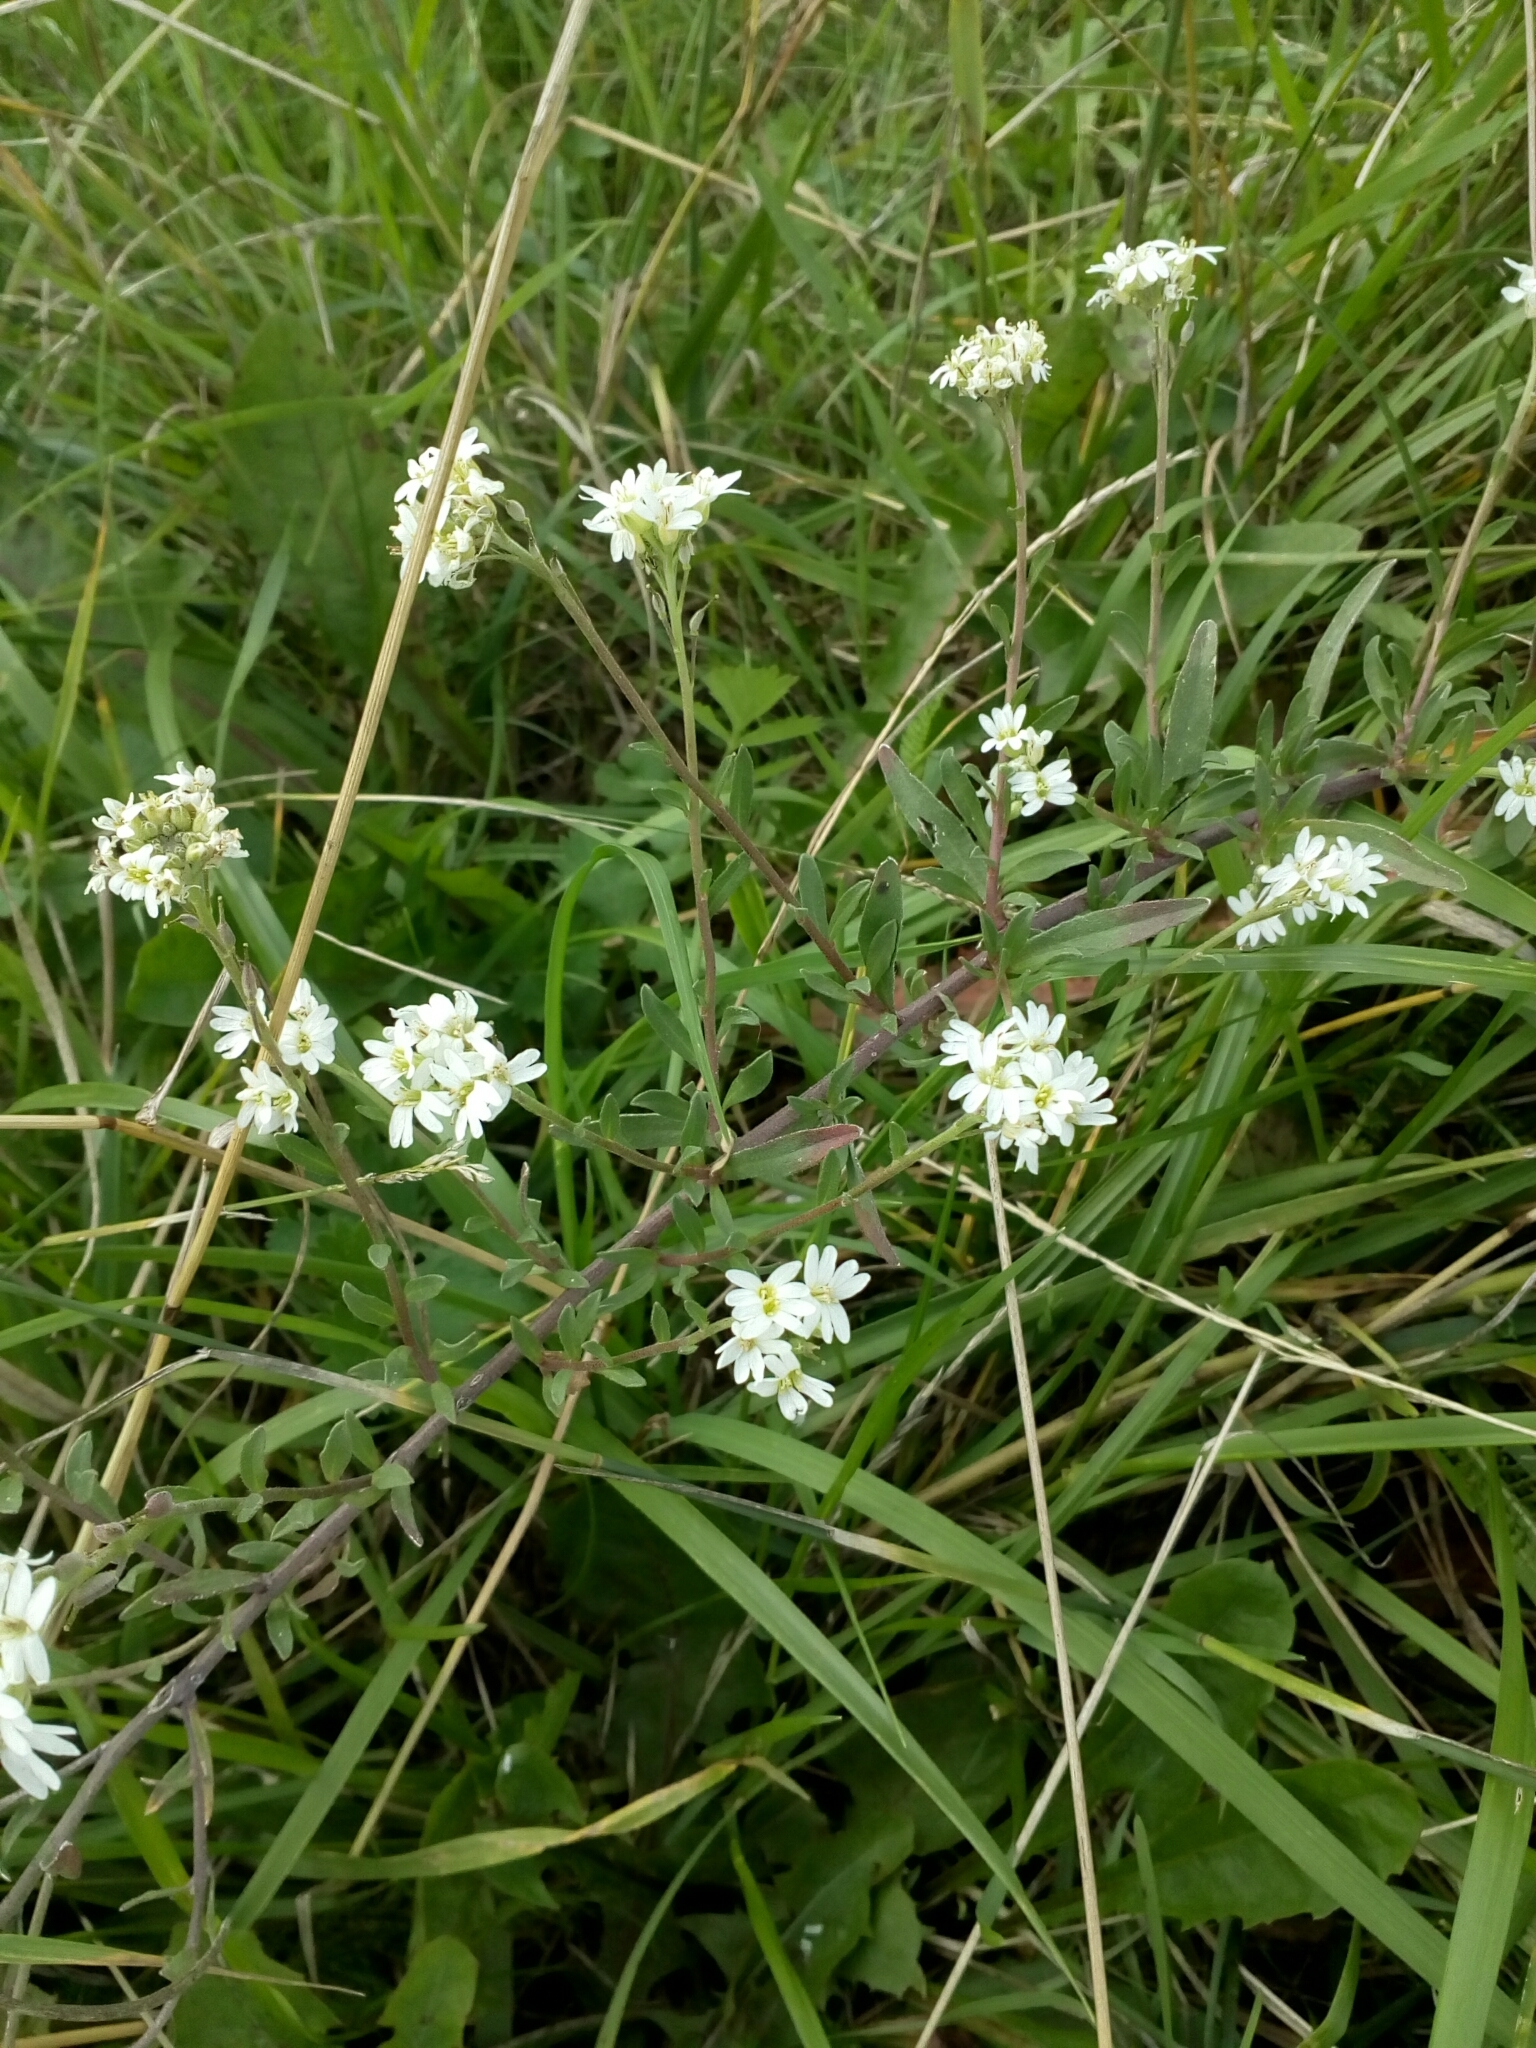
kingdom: Plantae
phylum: Tracheophyta
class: Magnoliopsida
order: Brassicales
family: Brassicaceae
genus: Berteroa
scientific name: Berteroa incana
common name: Hoary alison
